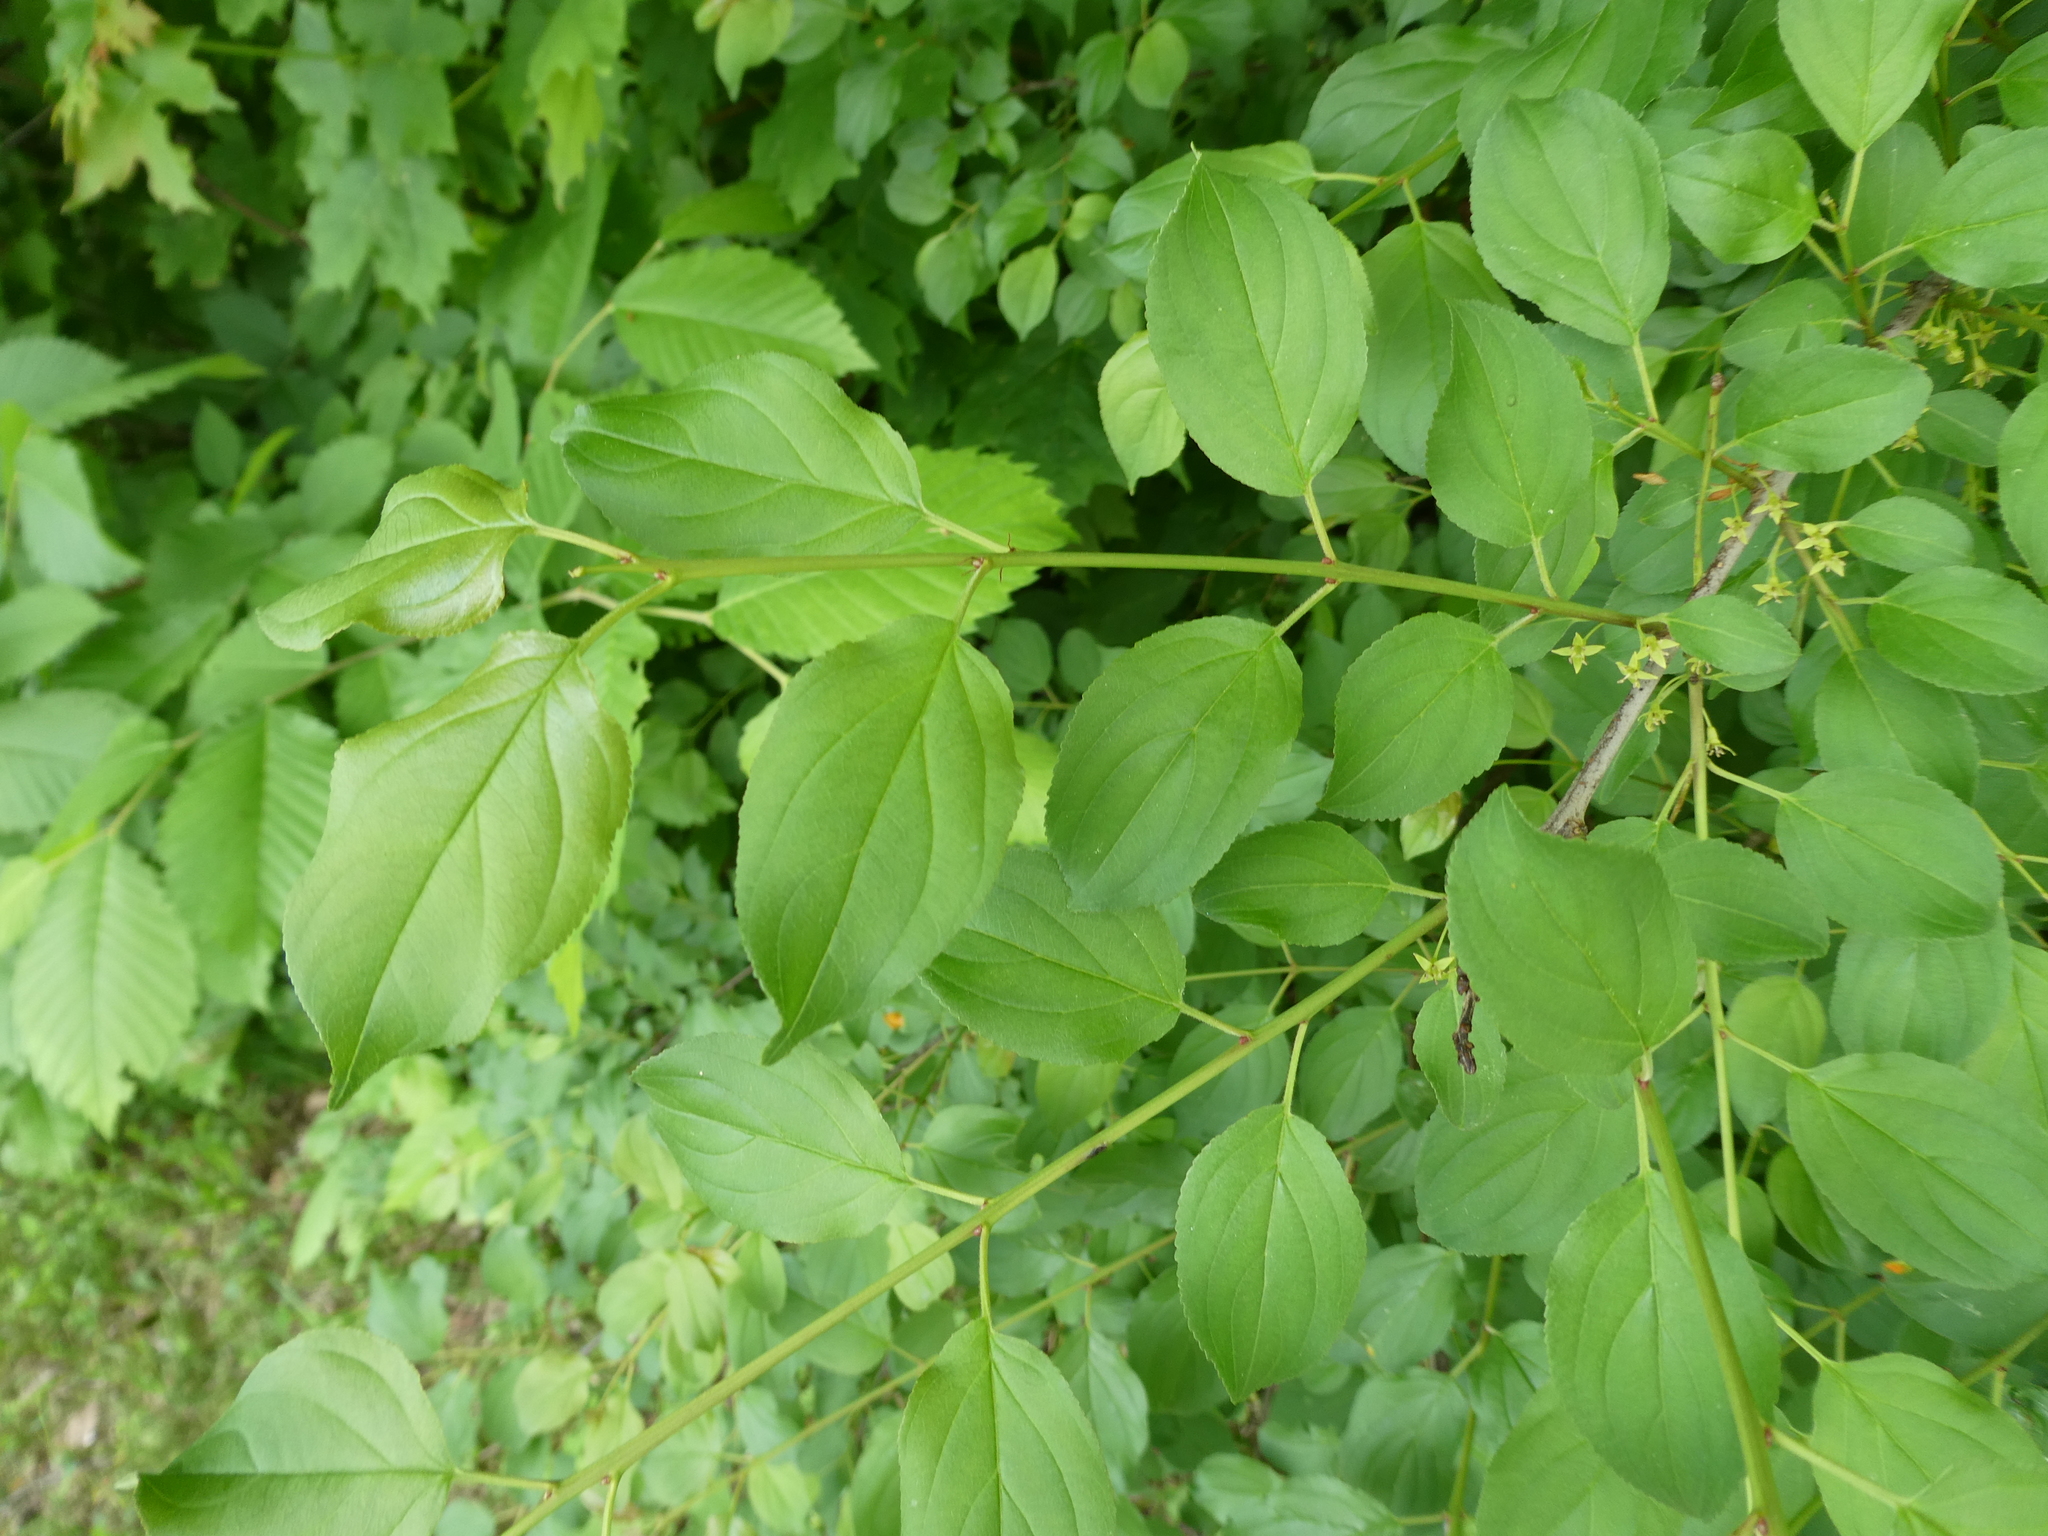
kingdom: Plantae
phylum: Tracheophyta
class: Magnoliopsida
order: Rosales
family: Rhamnaceae
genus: Rhamnus
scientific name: Rhamnus cathartica
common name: Common buckthorn
